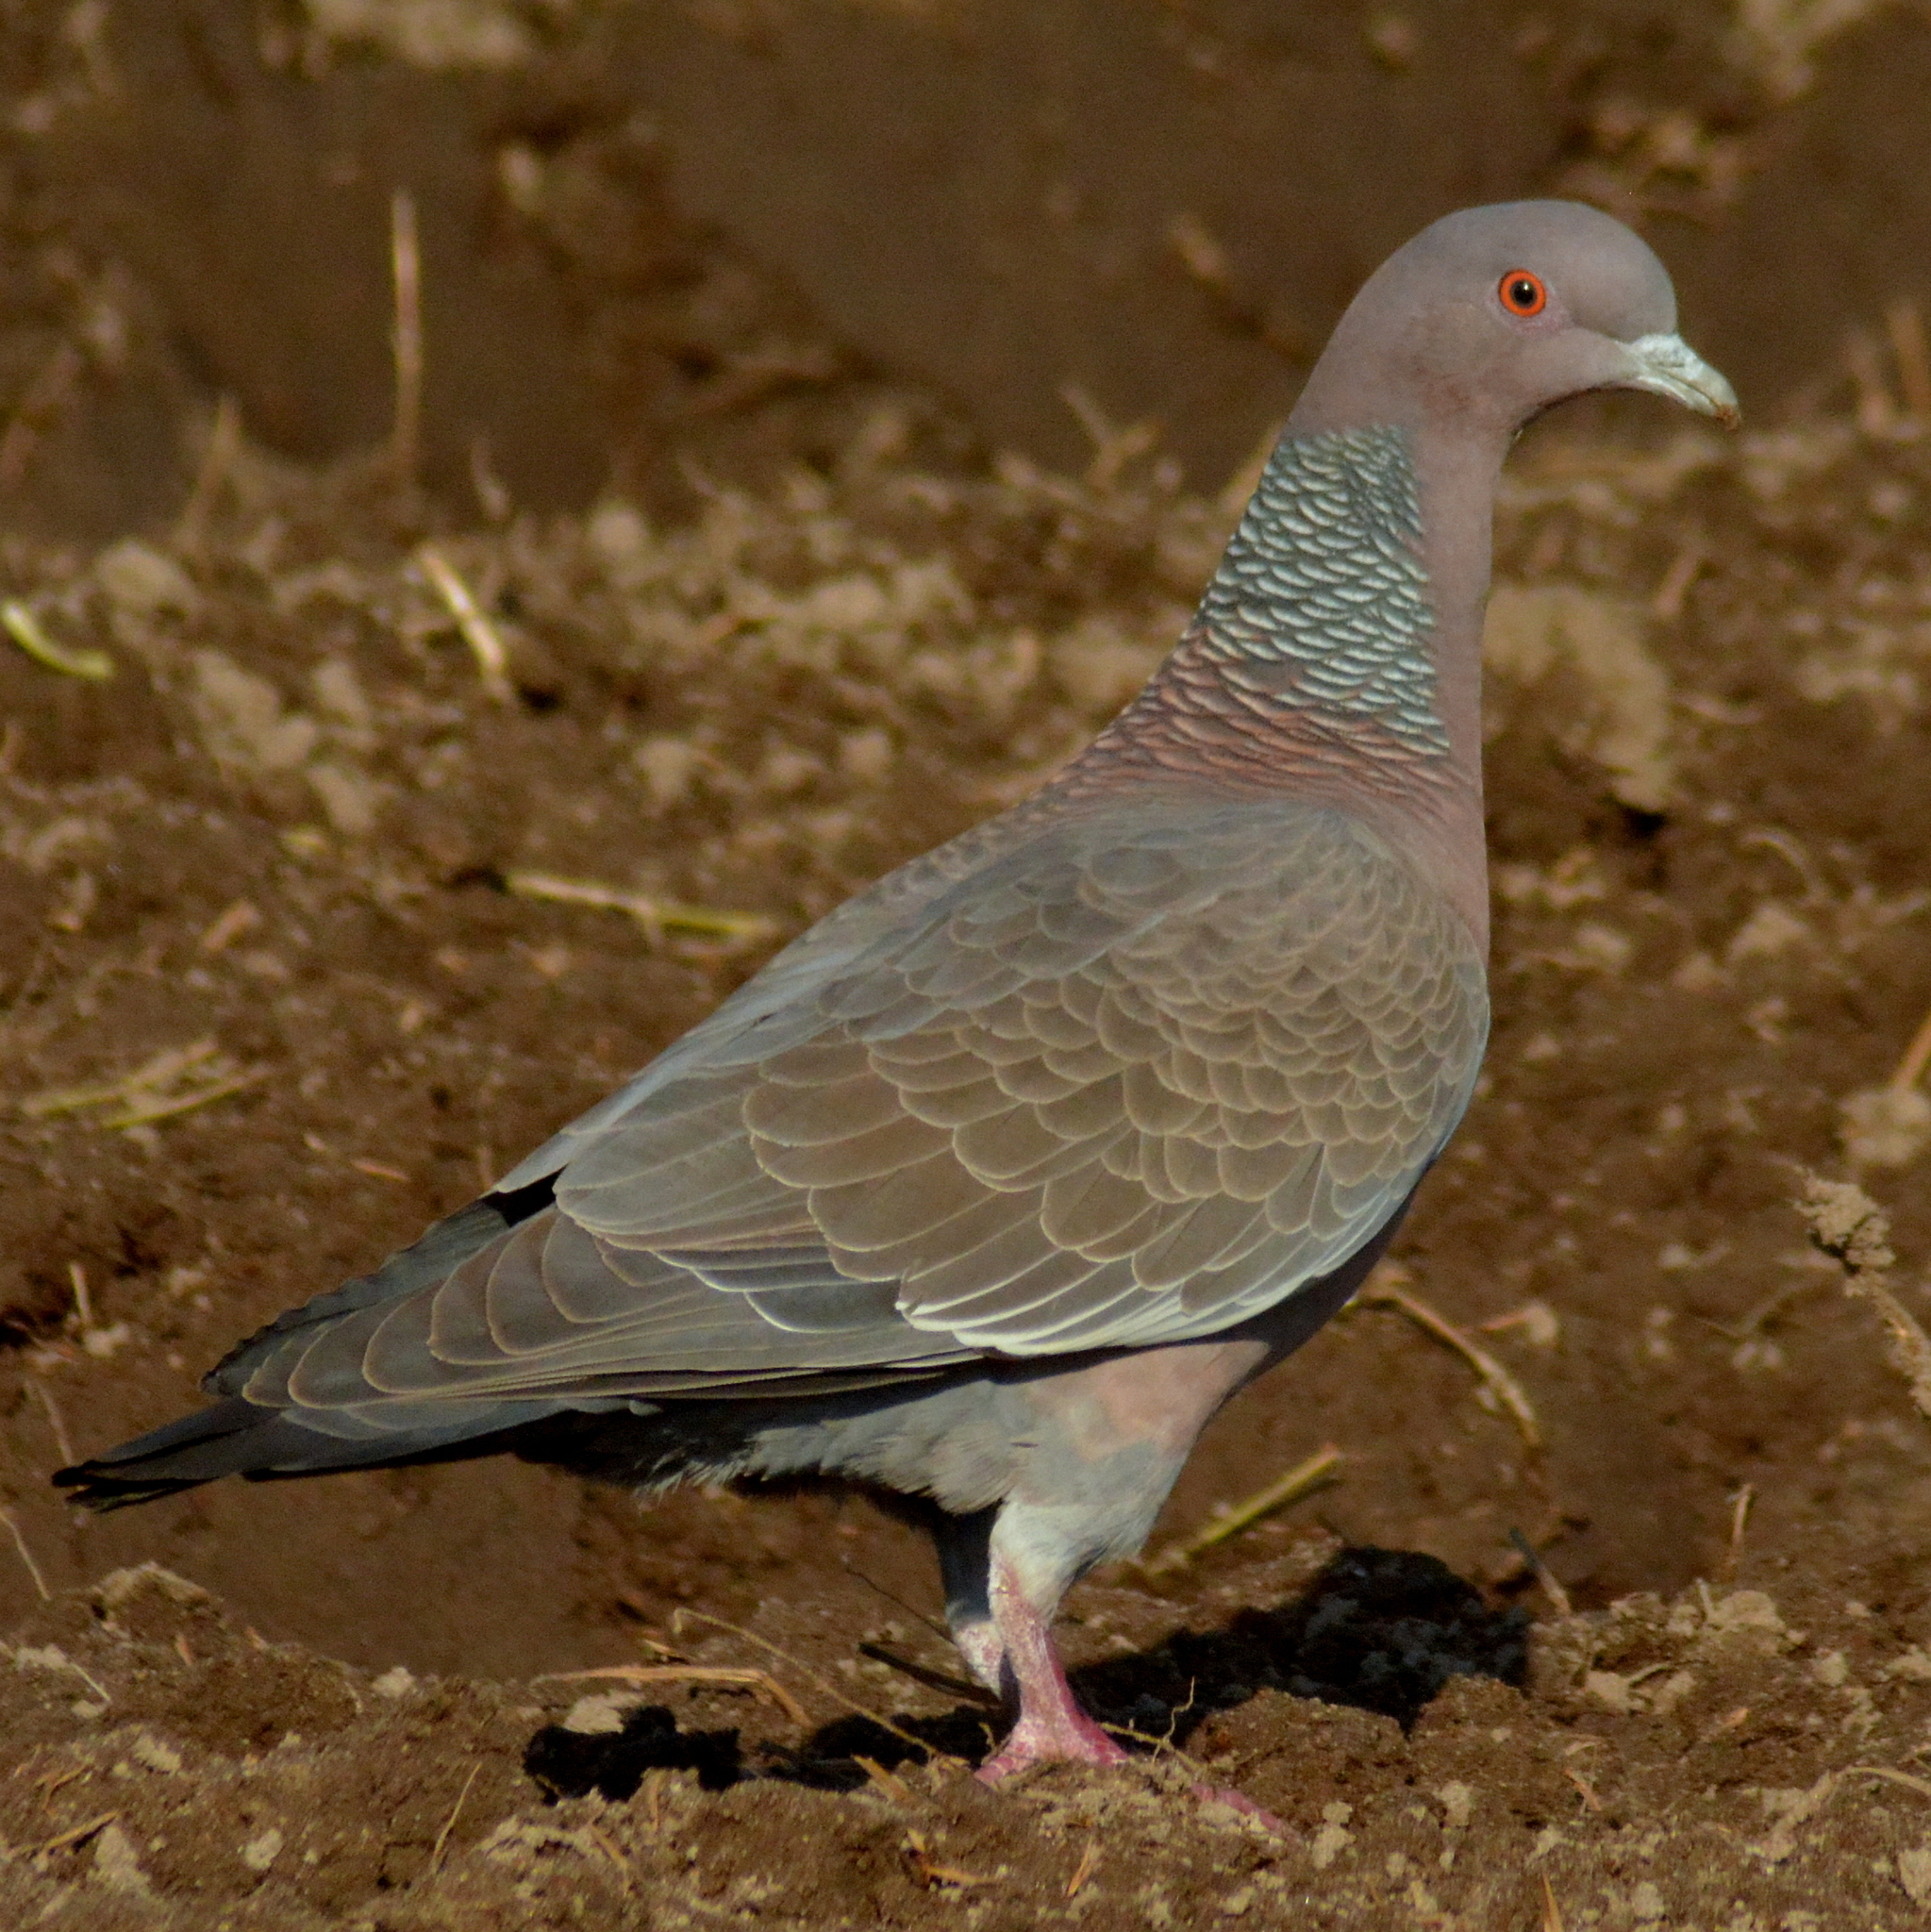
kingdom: Animalia
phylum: Chordata
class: Aves
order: Columbiformes
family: Columbidae
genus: Patagioenas
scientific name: Patagioenas picazuro
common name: Picazuro pigeon
